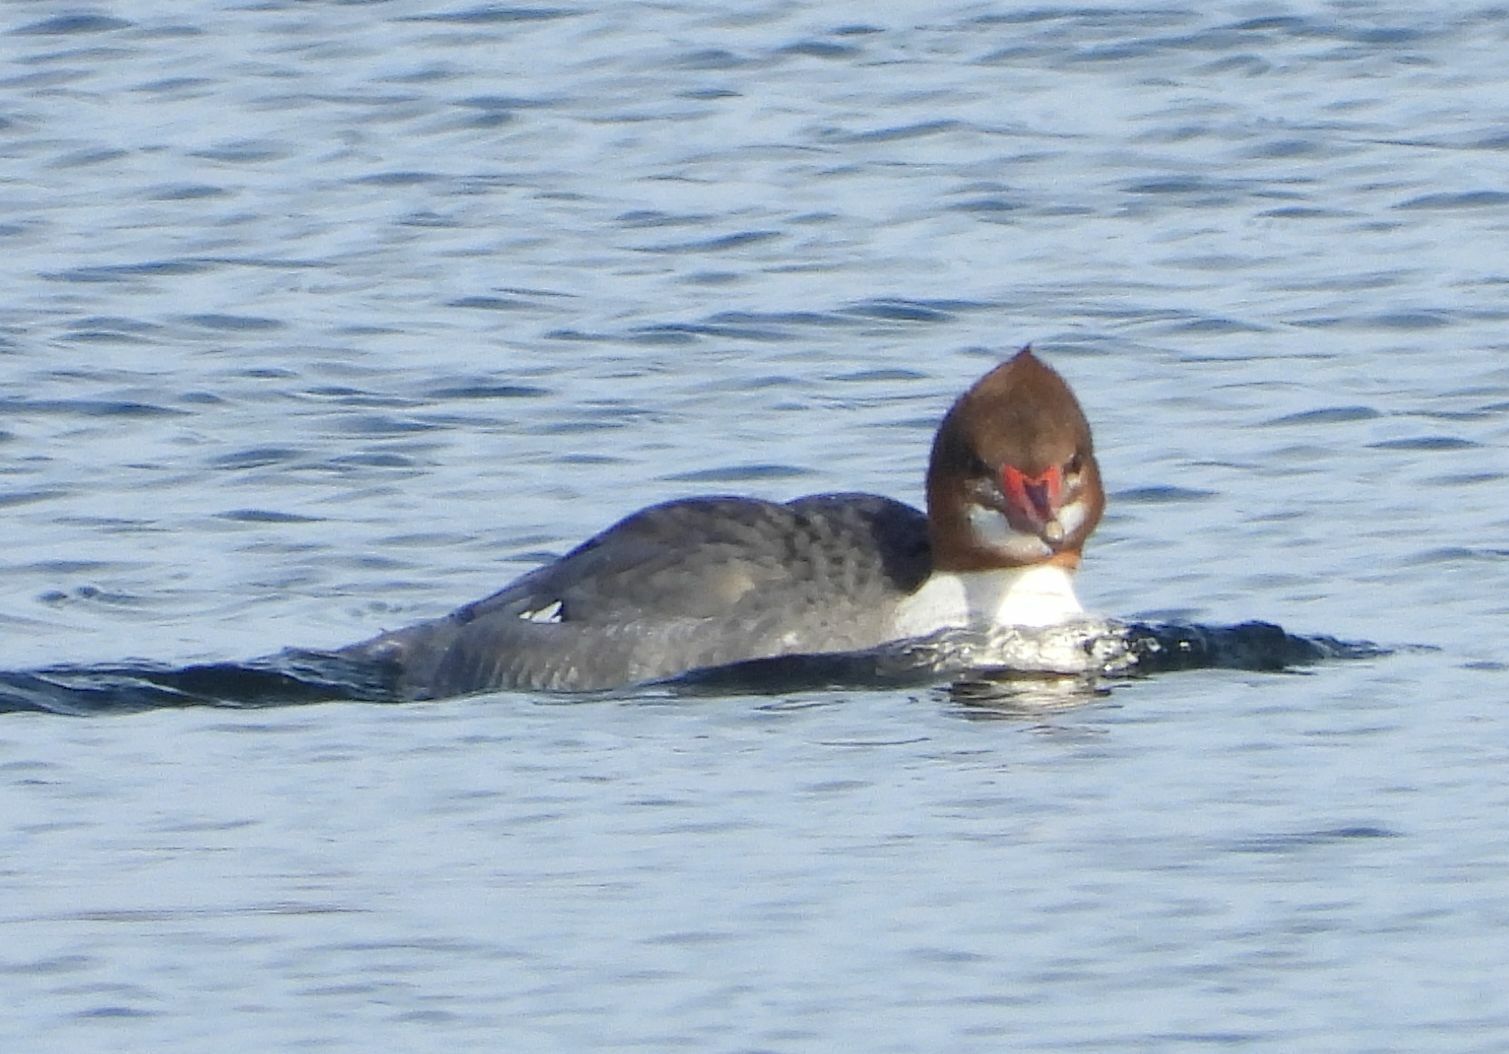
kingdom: Animalia
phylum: Chordata
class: Aves
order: Anseriformes
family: Anatidae
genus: Mergus
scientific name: Mergus merganser
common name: Common merganser
